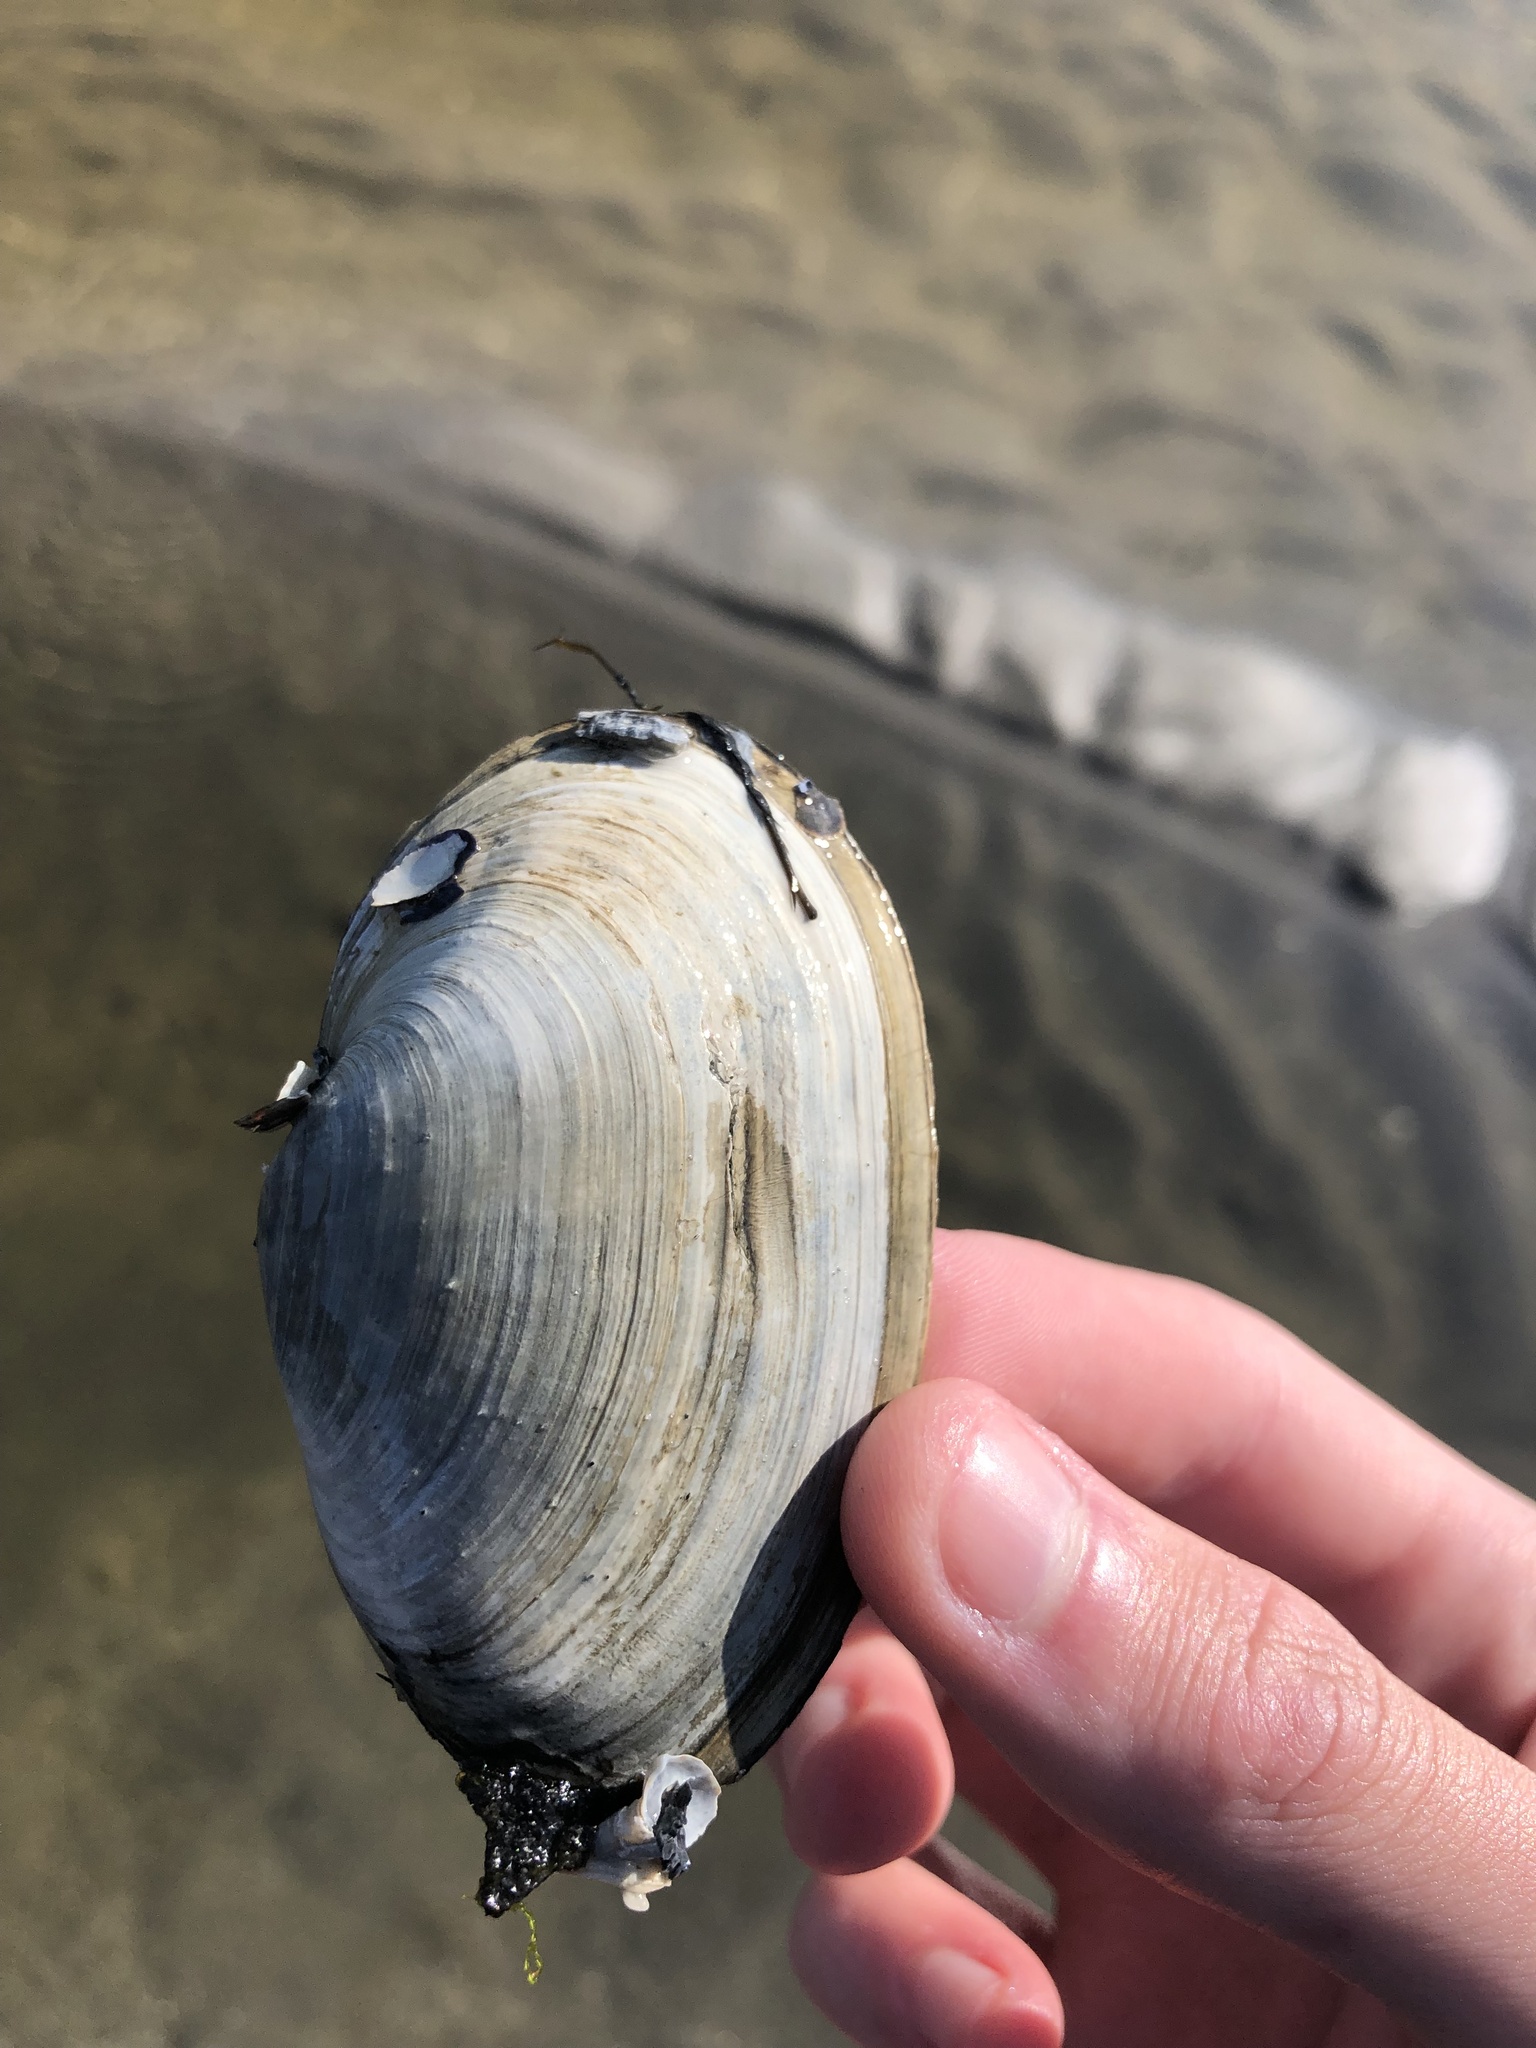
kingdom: Animalia
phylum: Mollusca
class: Bivalvia
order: Myida
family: Myidae
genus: Mya
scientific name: Mya arenaria
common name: Soft-shelled clam
